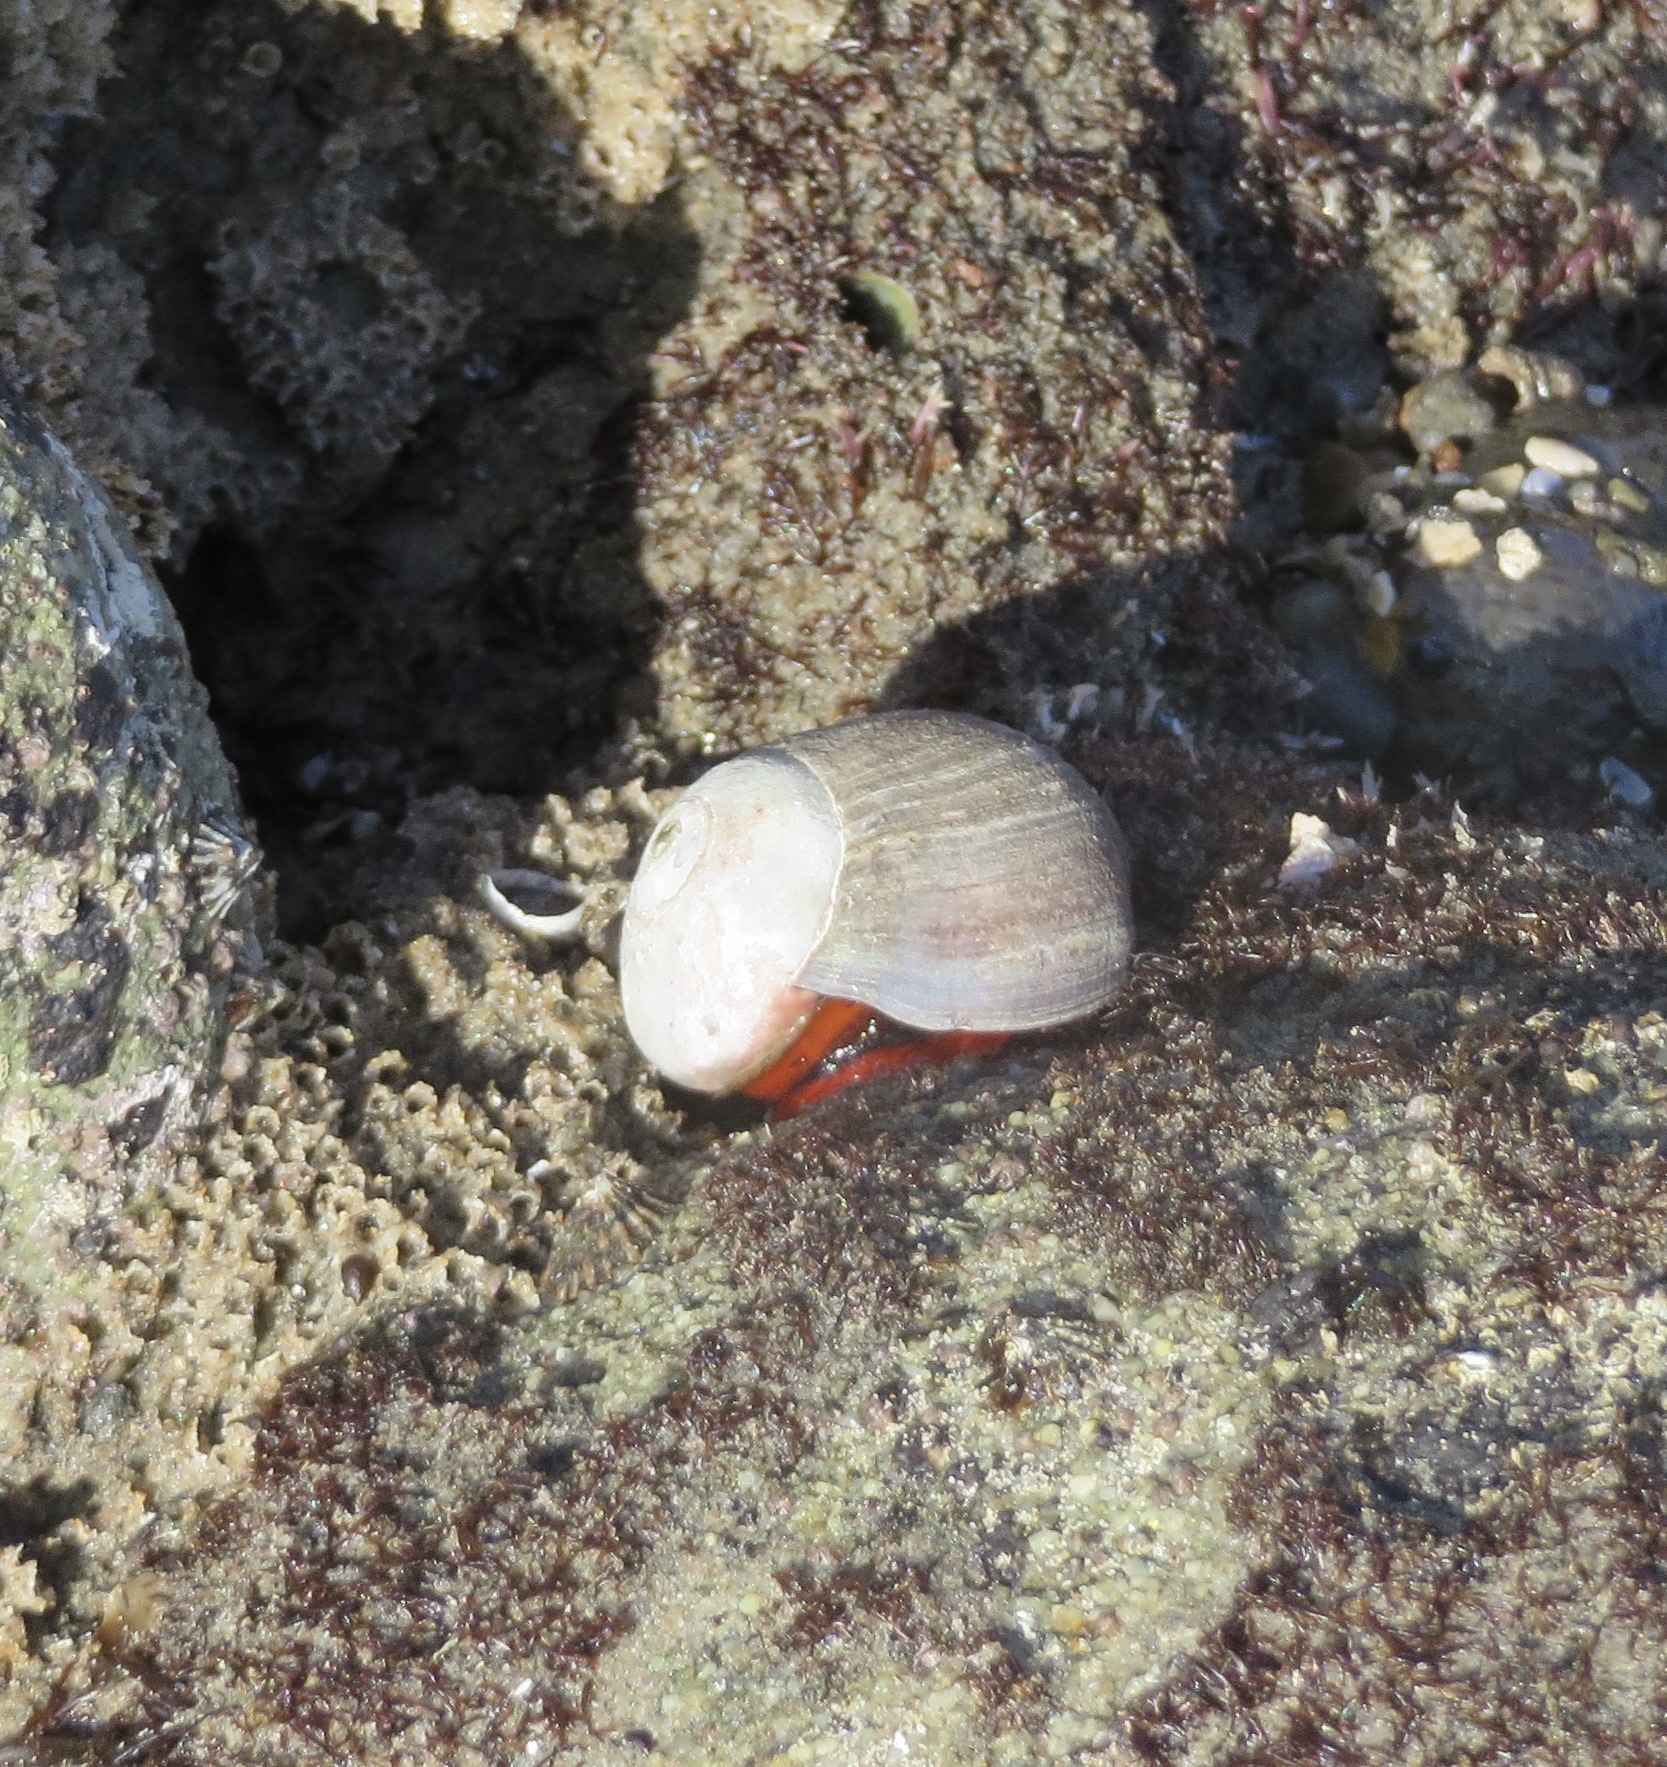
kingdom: Animalia
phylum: Mollusca
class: Gastropoda
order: Trochida
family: Tegulidae
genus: Norrisia
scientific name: Norrisia norrisii
